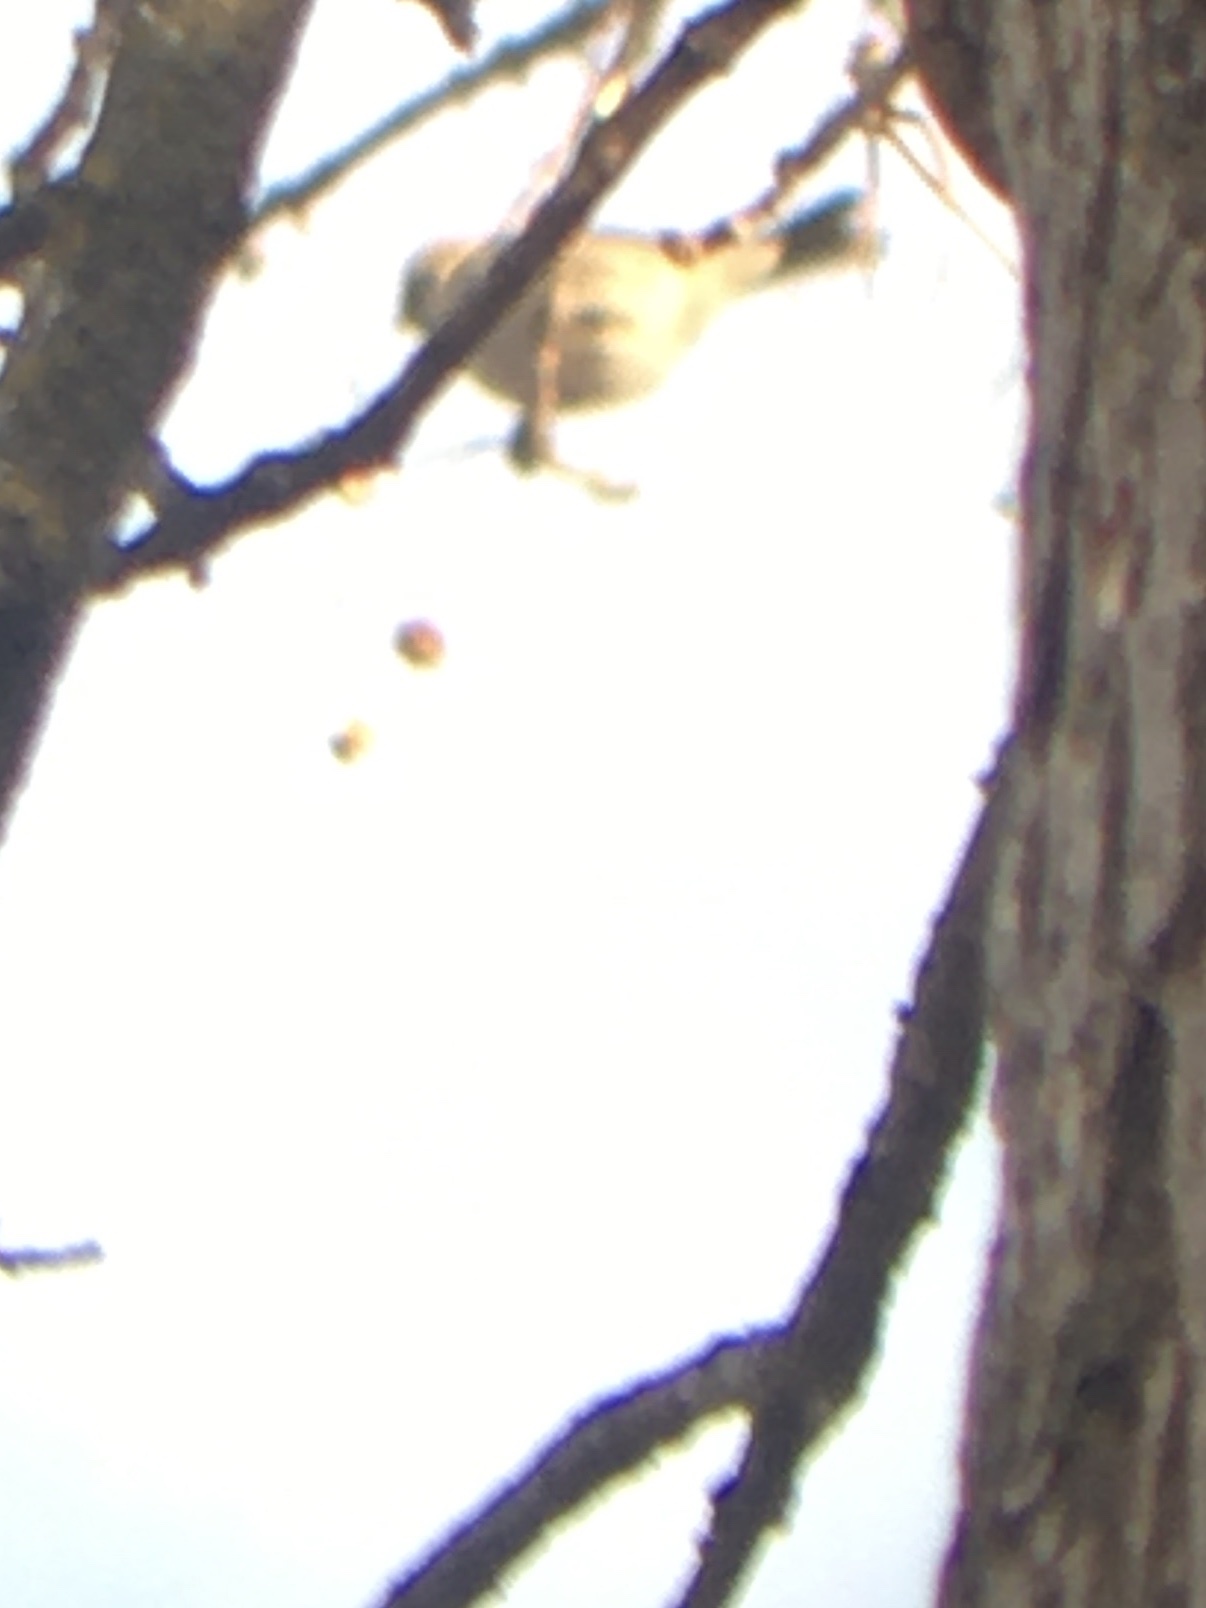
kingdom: Animalia
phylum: Chordata
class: Aves
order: Passeriformes
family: Fringillidae
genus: Acanthis
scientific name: Acanthis flammea
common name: Common redpoll
